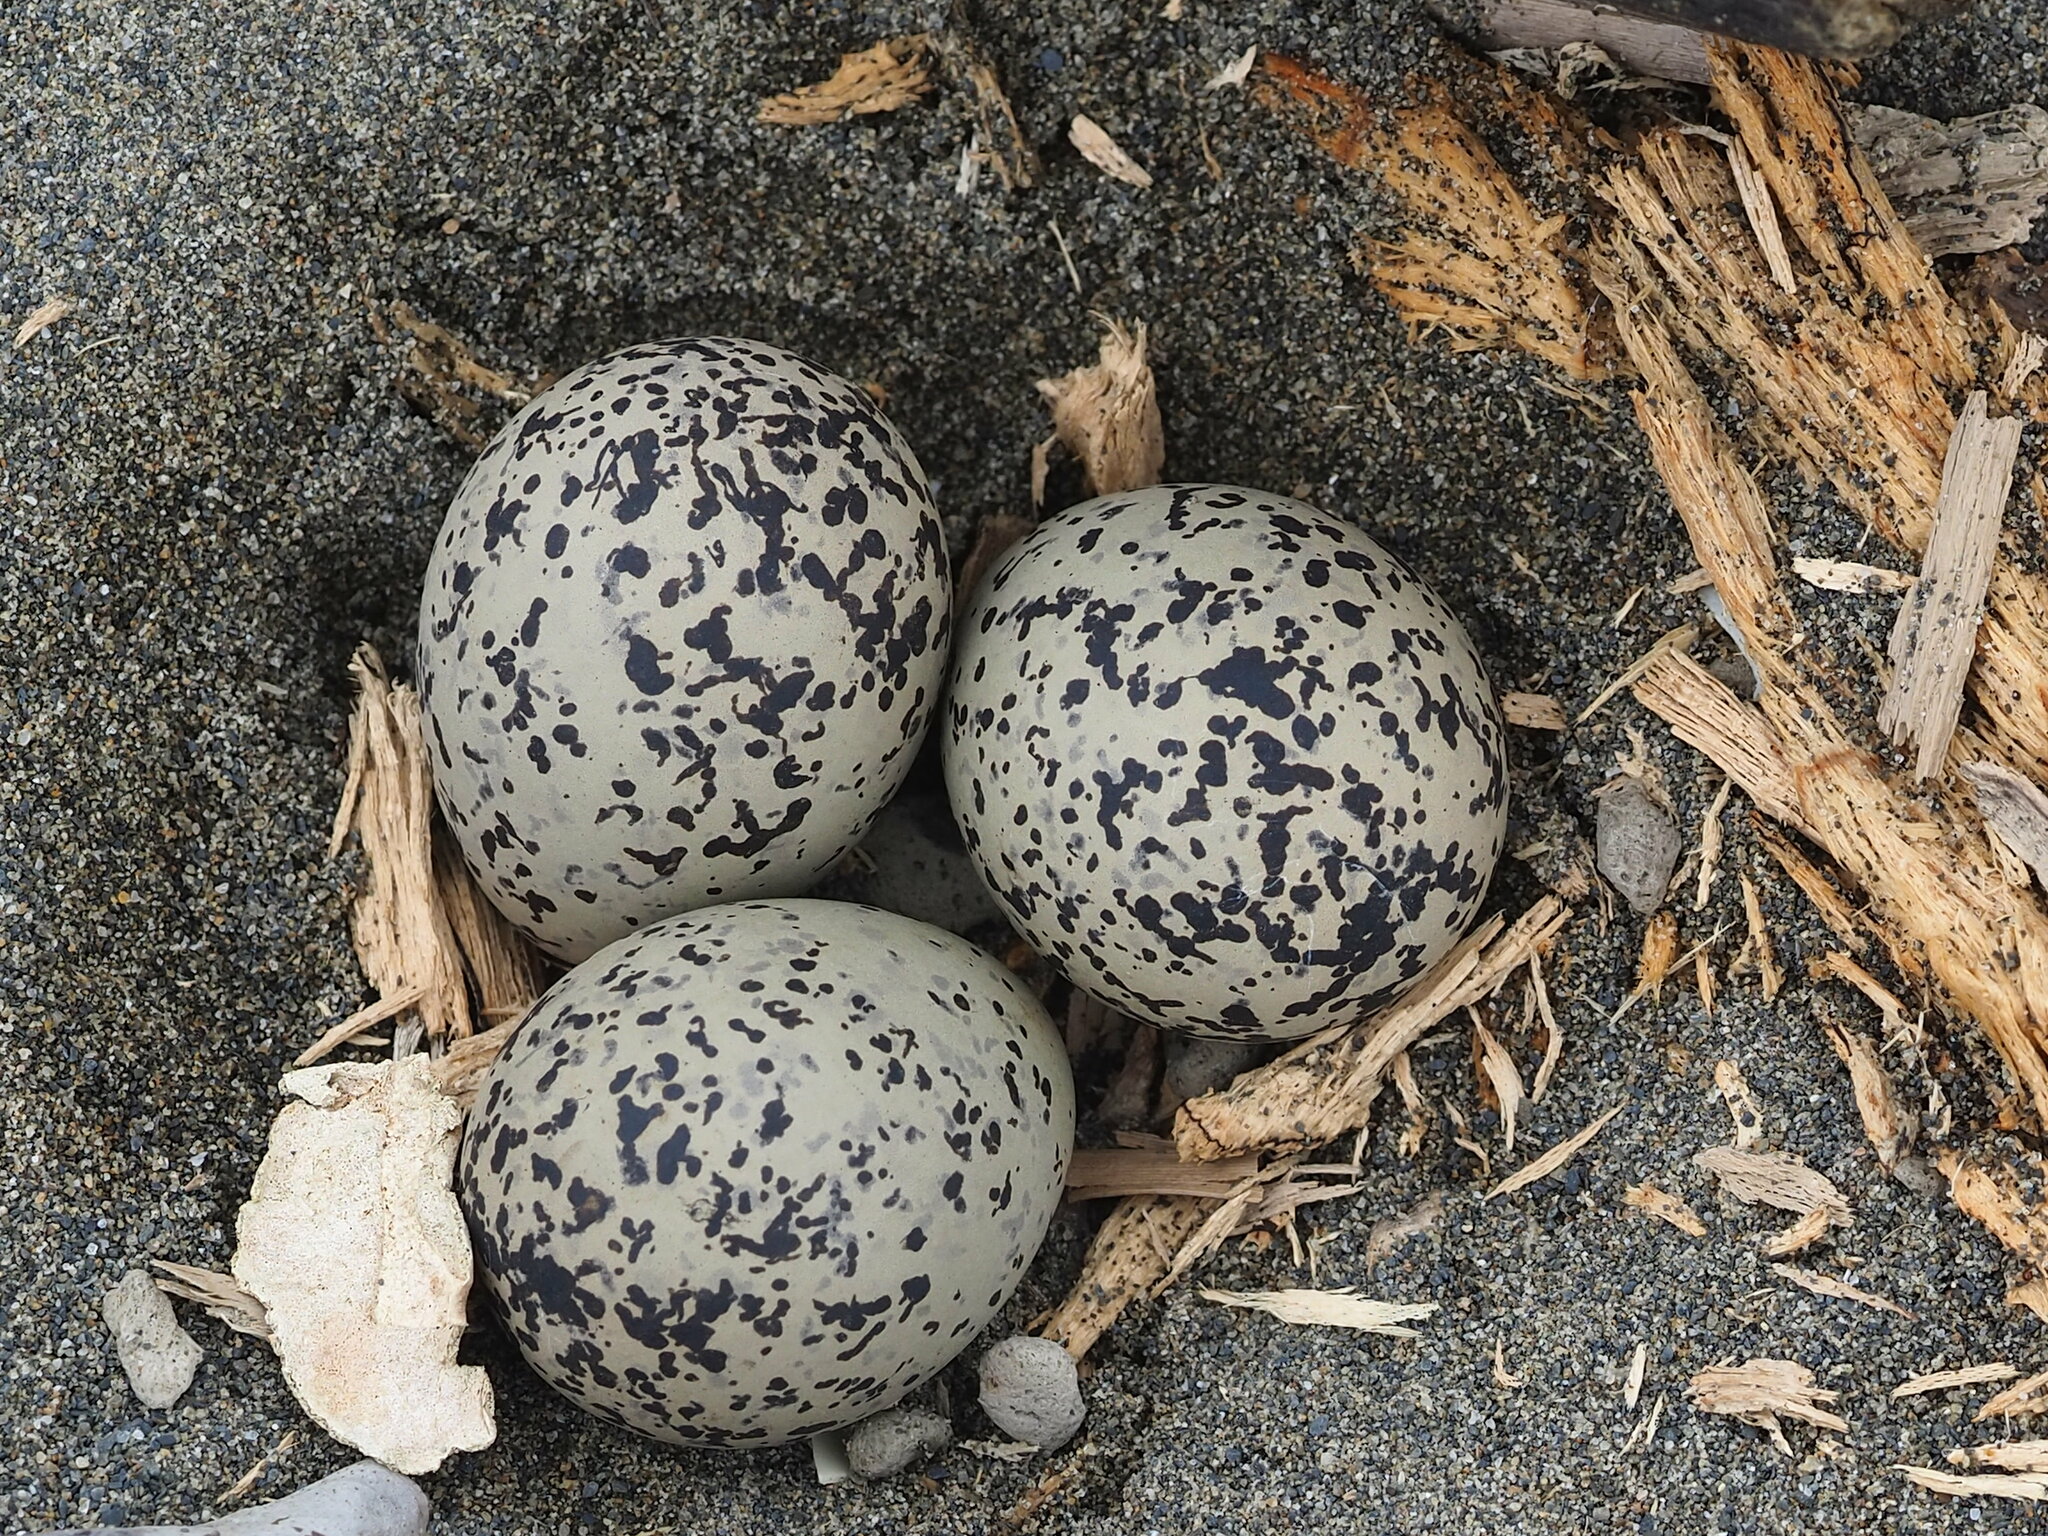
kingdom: Animalia
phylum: Chordata
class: Aves
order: Charadriiformes
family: Charadriidae
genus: Charadrius
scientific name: Charadrius alexandrinus
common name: Kentish plover
